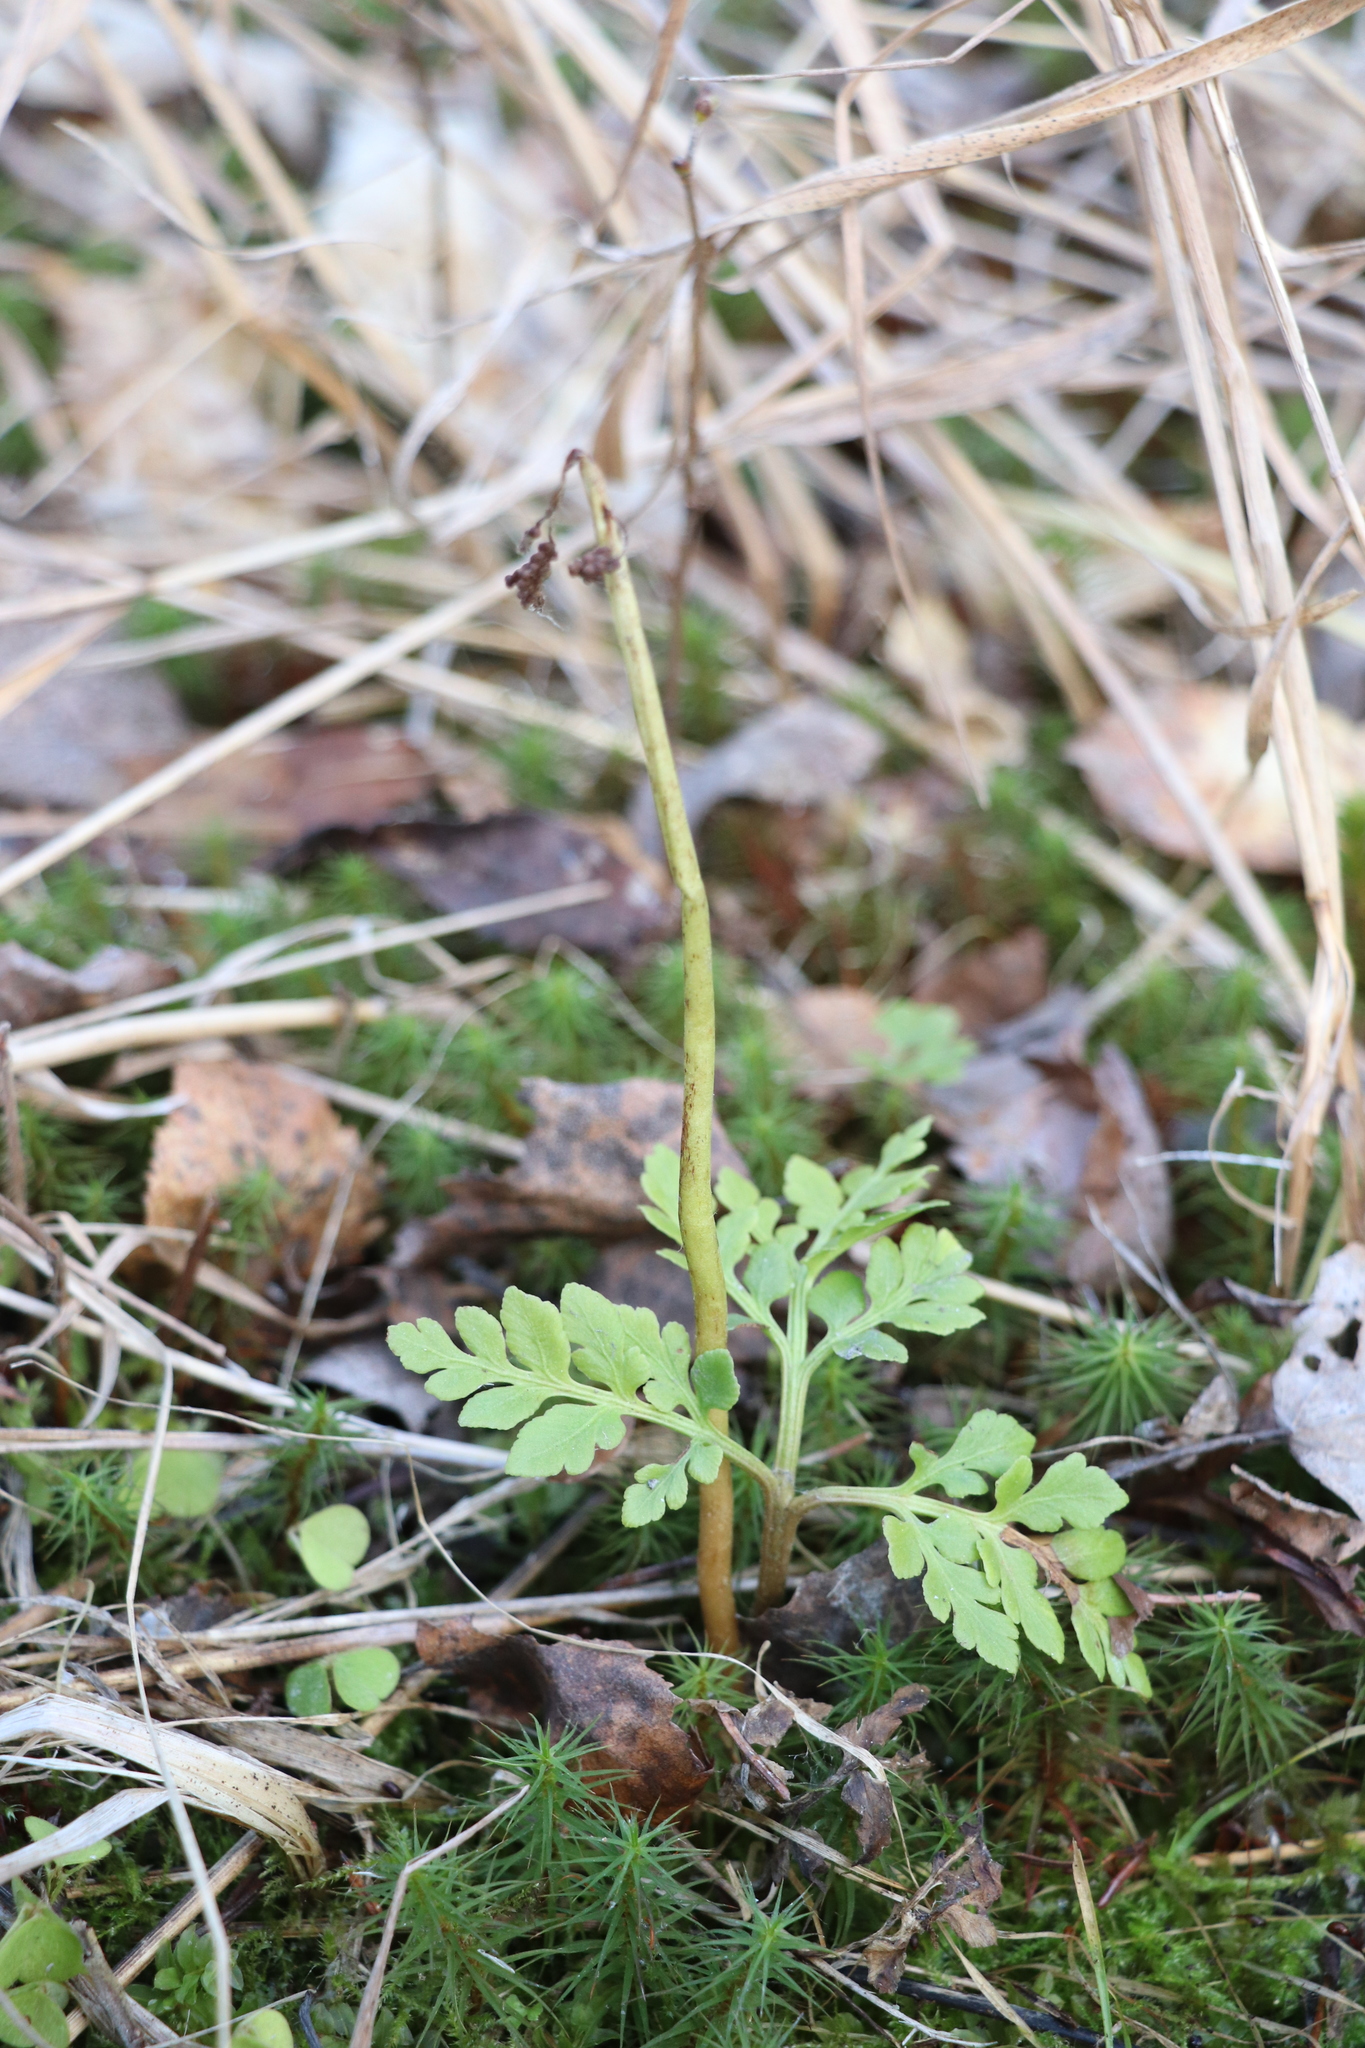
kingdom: Plantae
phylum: Tracheophyta
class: Polypodiopsida
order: Ophioglossales
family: Ophioglossaceae
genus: Sceptridium
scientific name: Sceptridium multifidum
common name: Leathery grape fern
